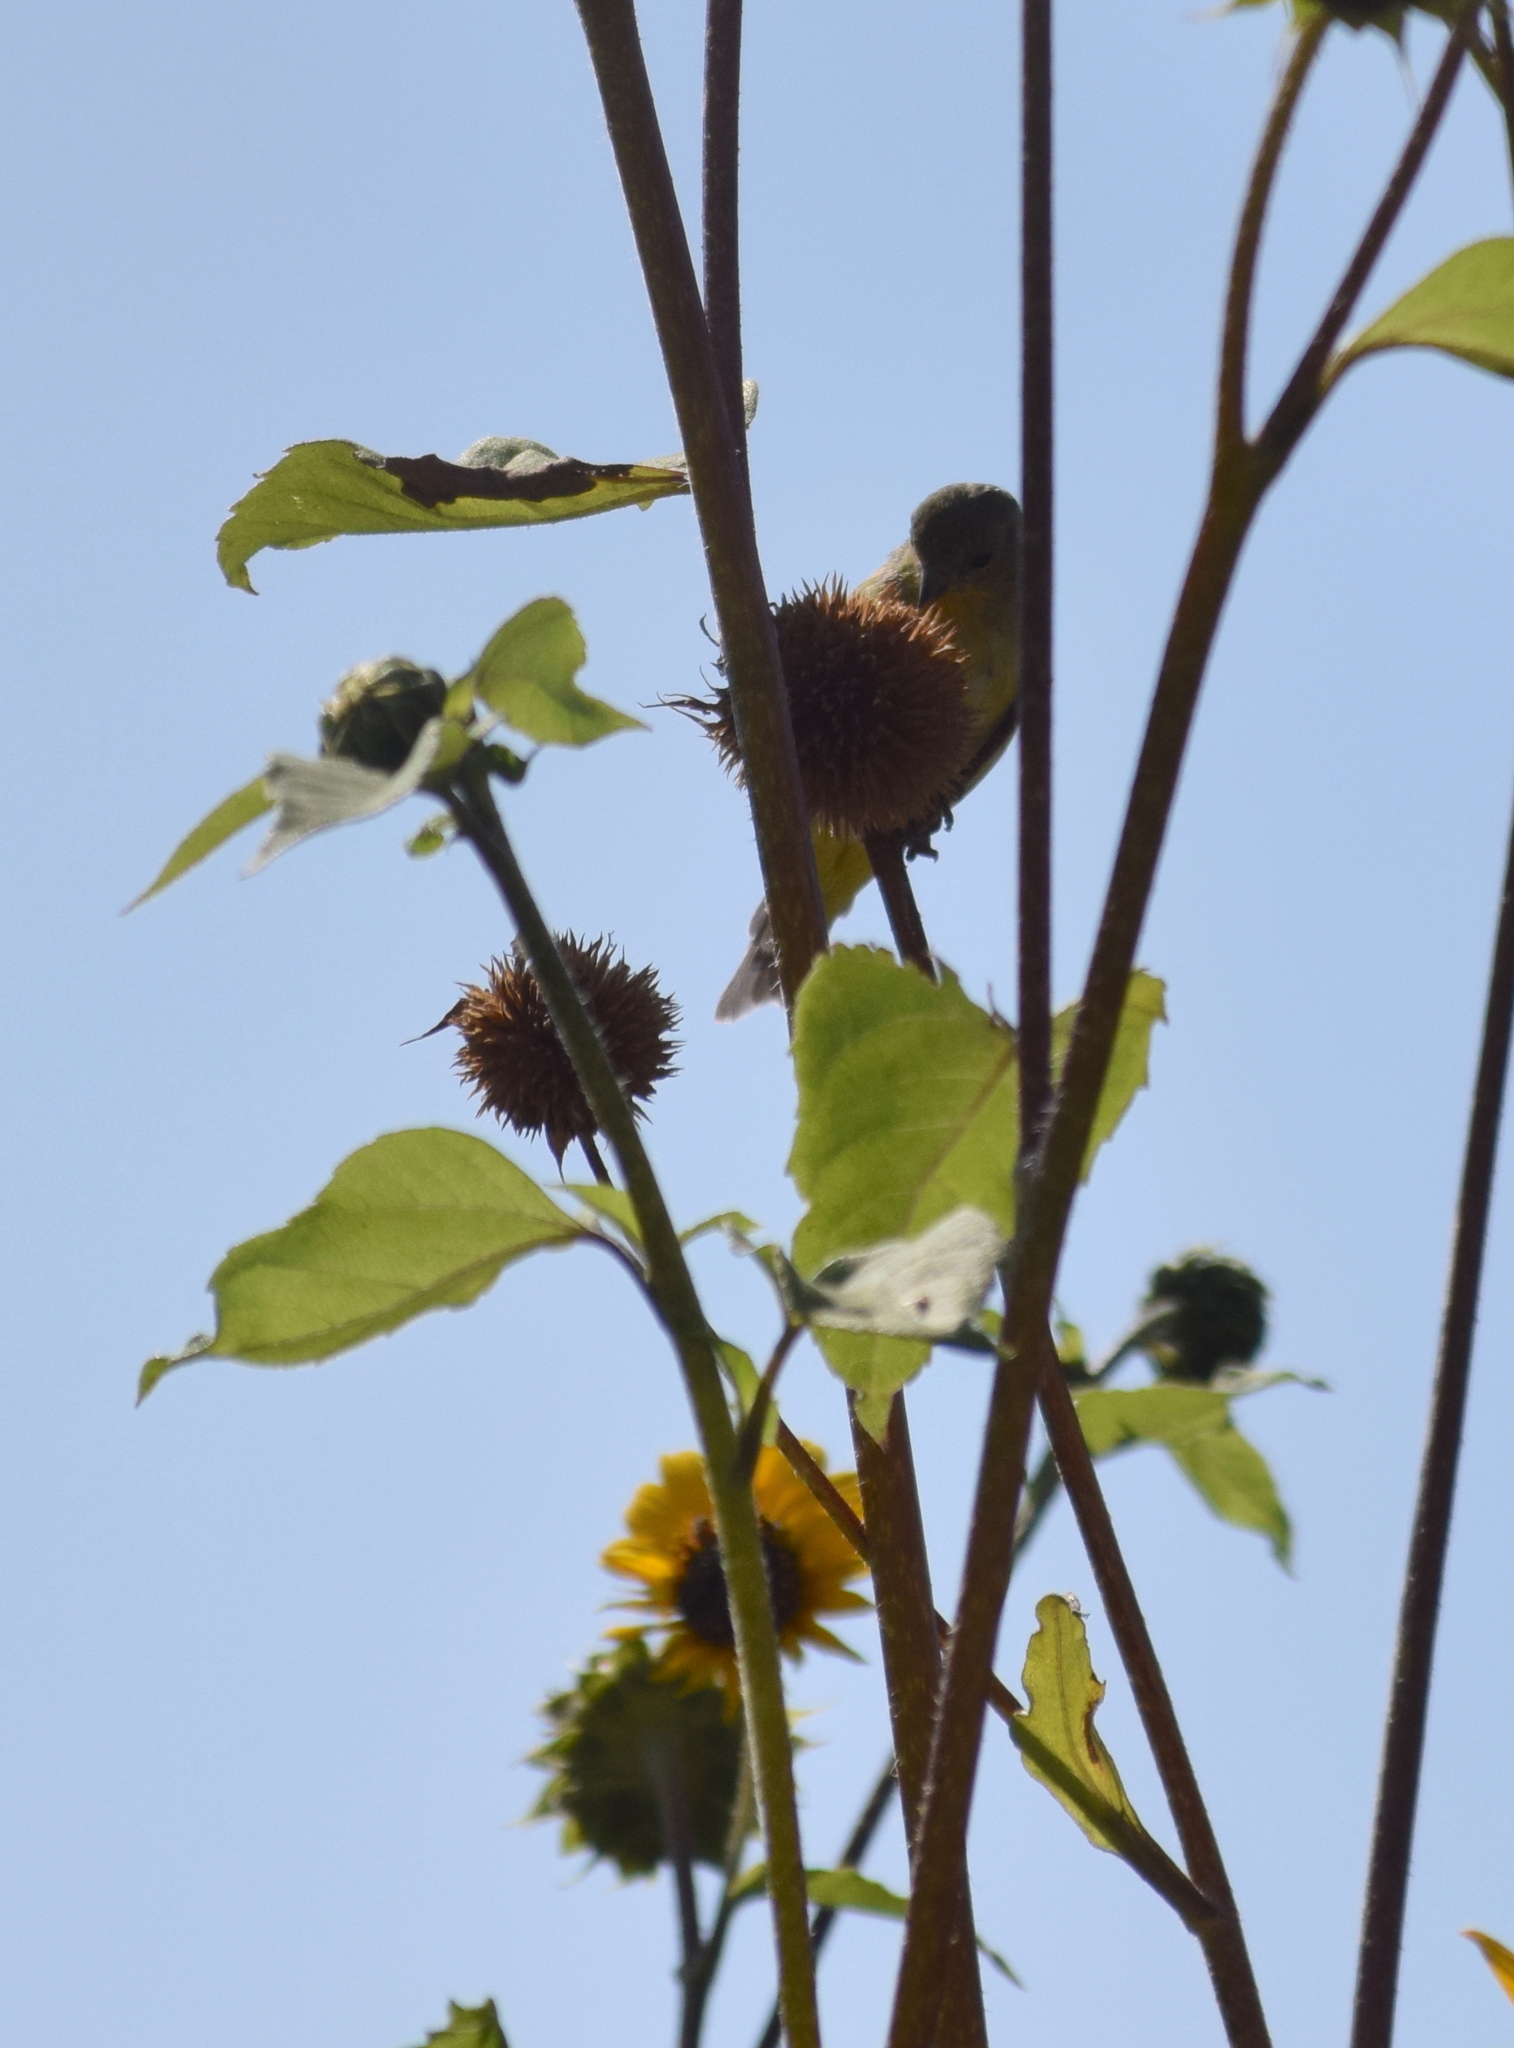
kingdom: Animalia
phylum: Chordata
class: Aves
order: Passeriformes
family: Fringillidae
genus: Spinus
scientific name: Spinus psaltria
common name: Lesser goldfinch
